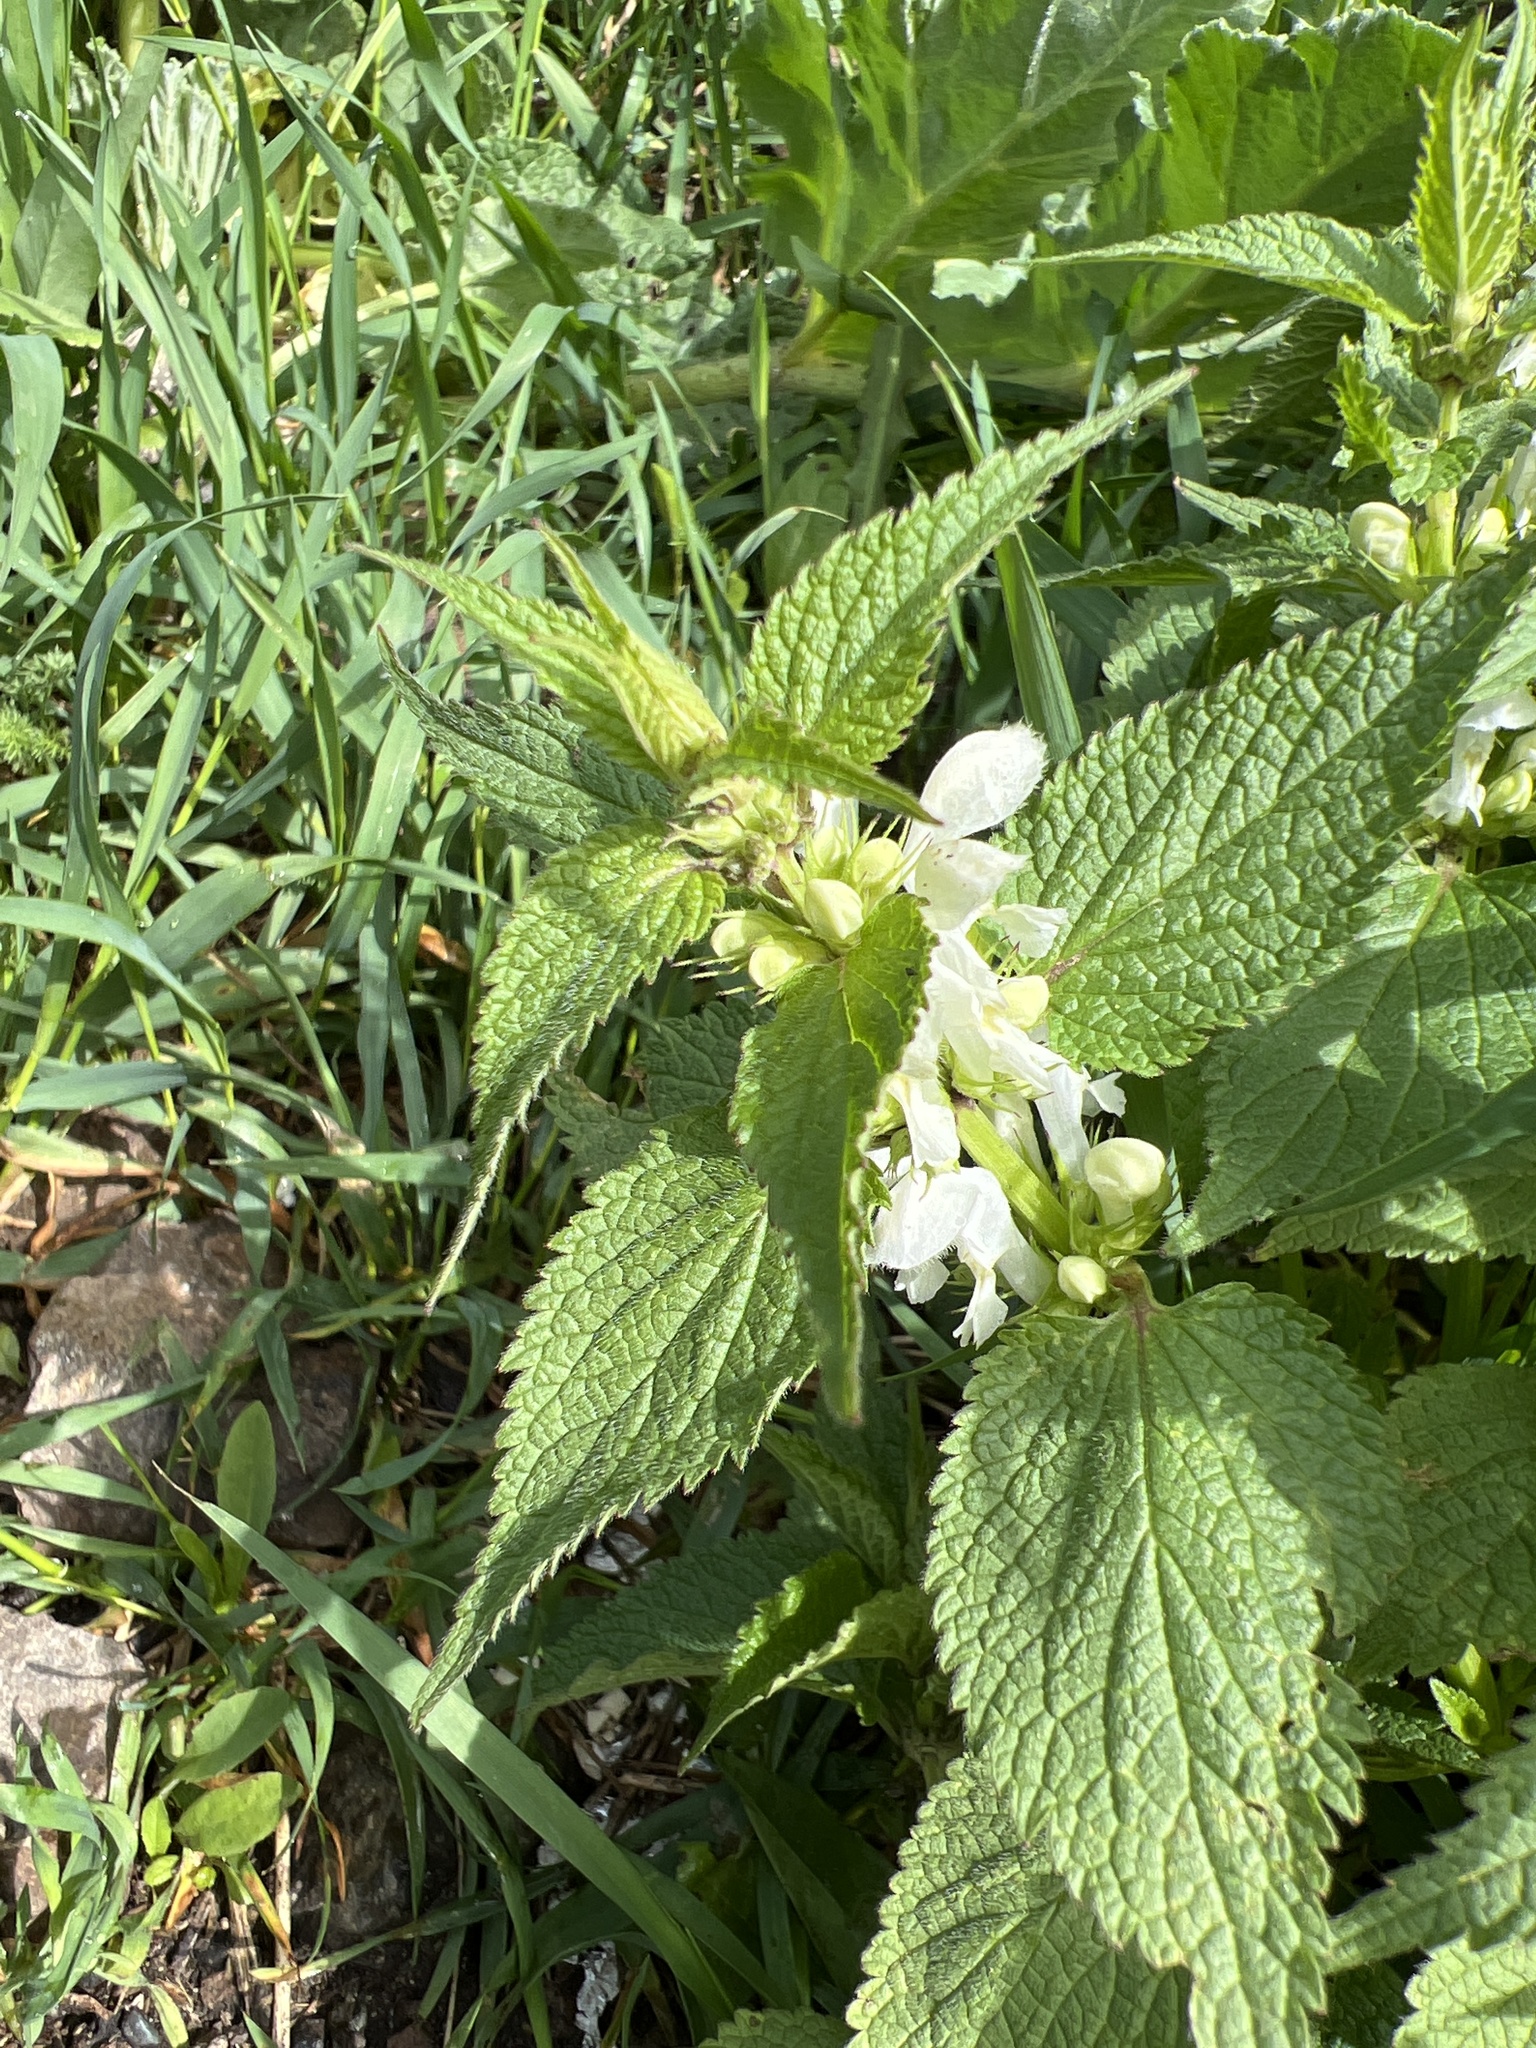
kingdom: Plantae
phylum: Tracheophyta
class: Magnoliopsida
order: Lamiales
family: Lamiaceae
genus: Lamium
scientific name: Lamium album
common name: White dead-nettle
